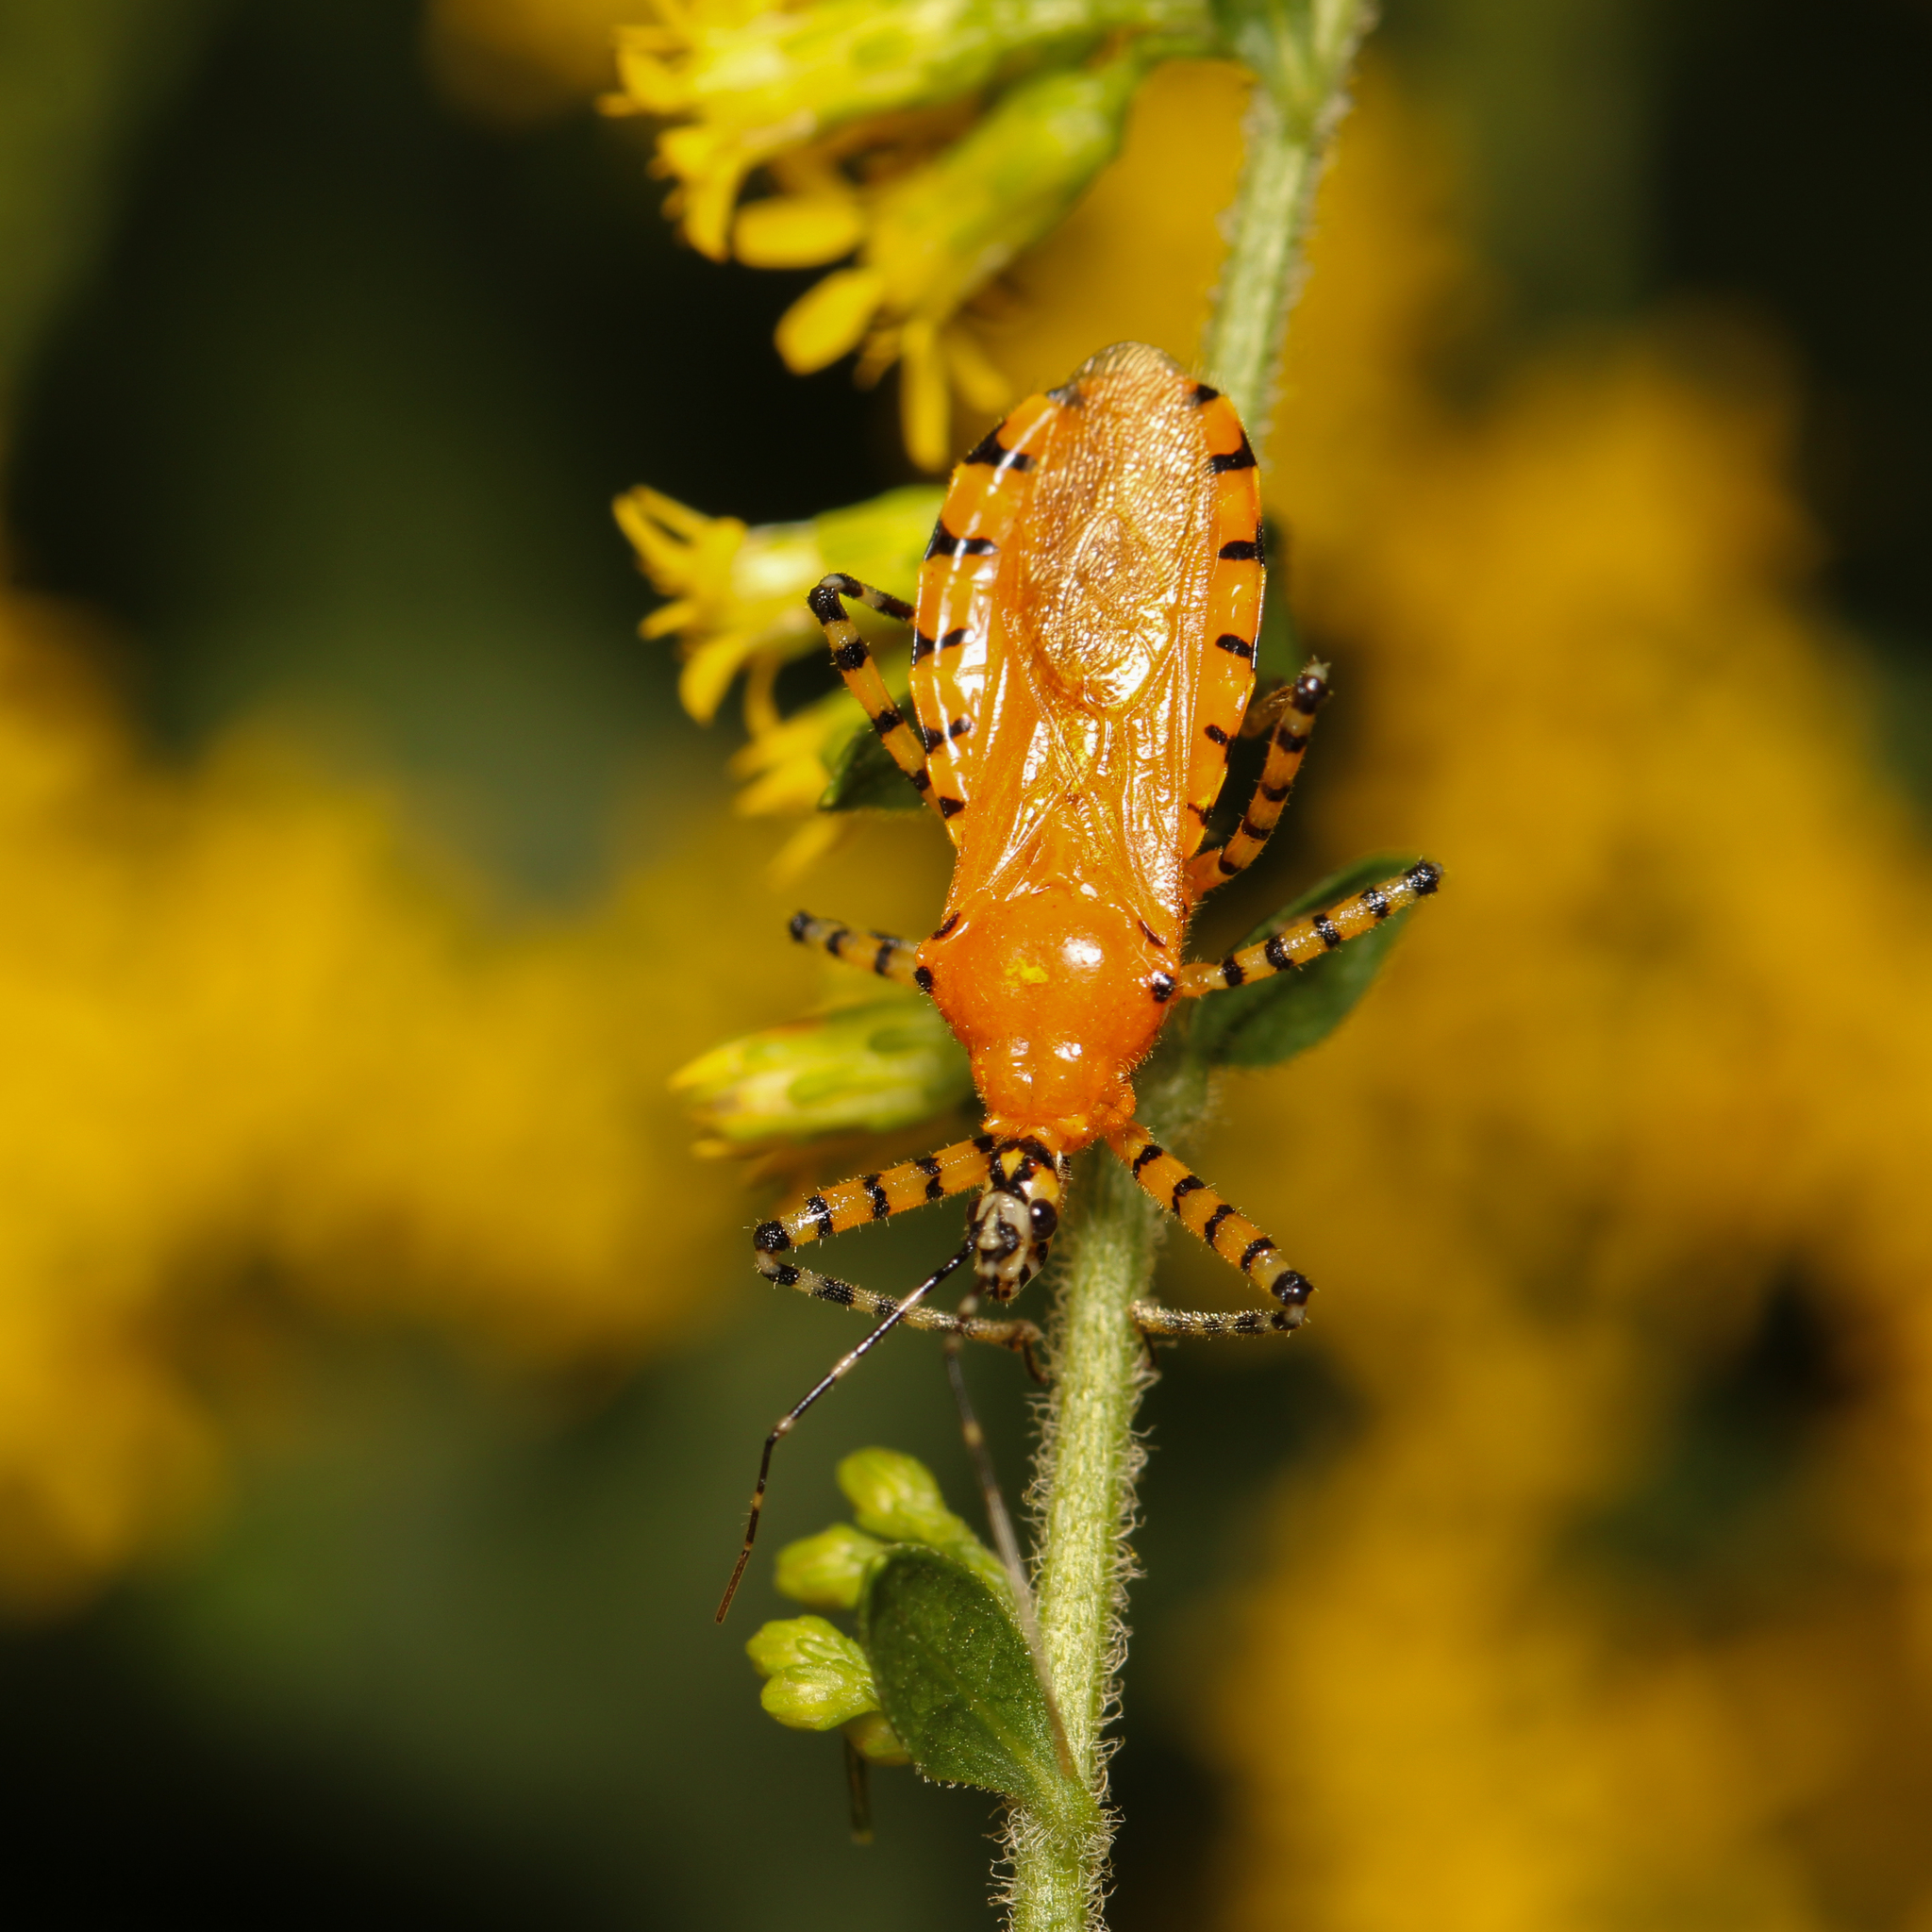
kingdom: Animalia
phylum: Arthropoda
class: Insecta
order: Hemiptera
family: Reduviidae
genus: Pselliopus
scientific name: Pselliopus barberi
